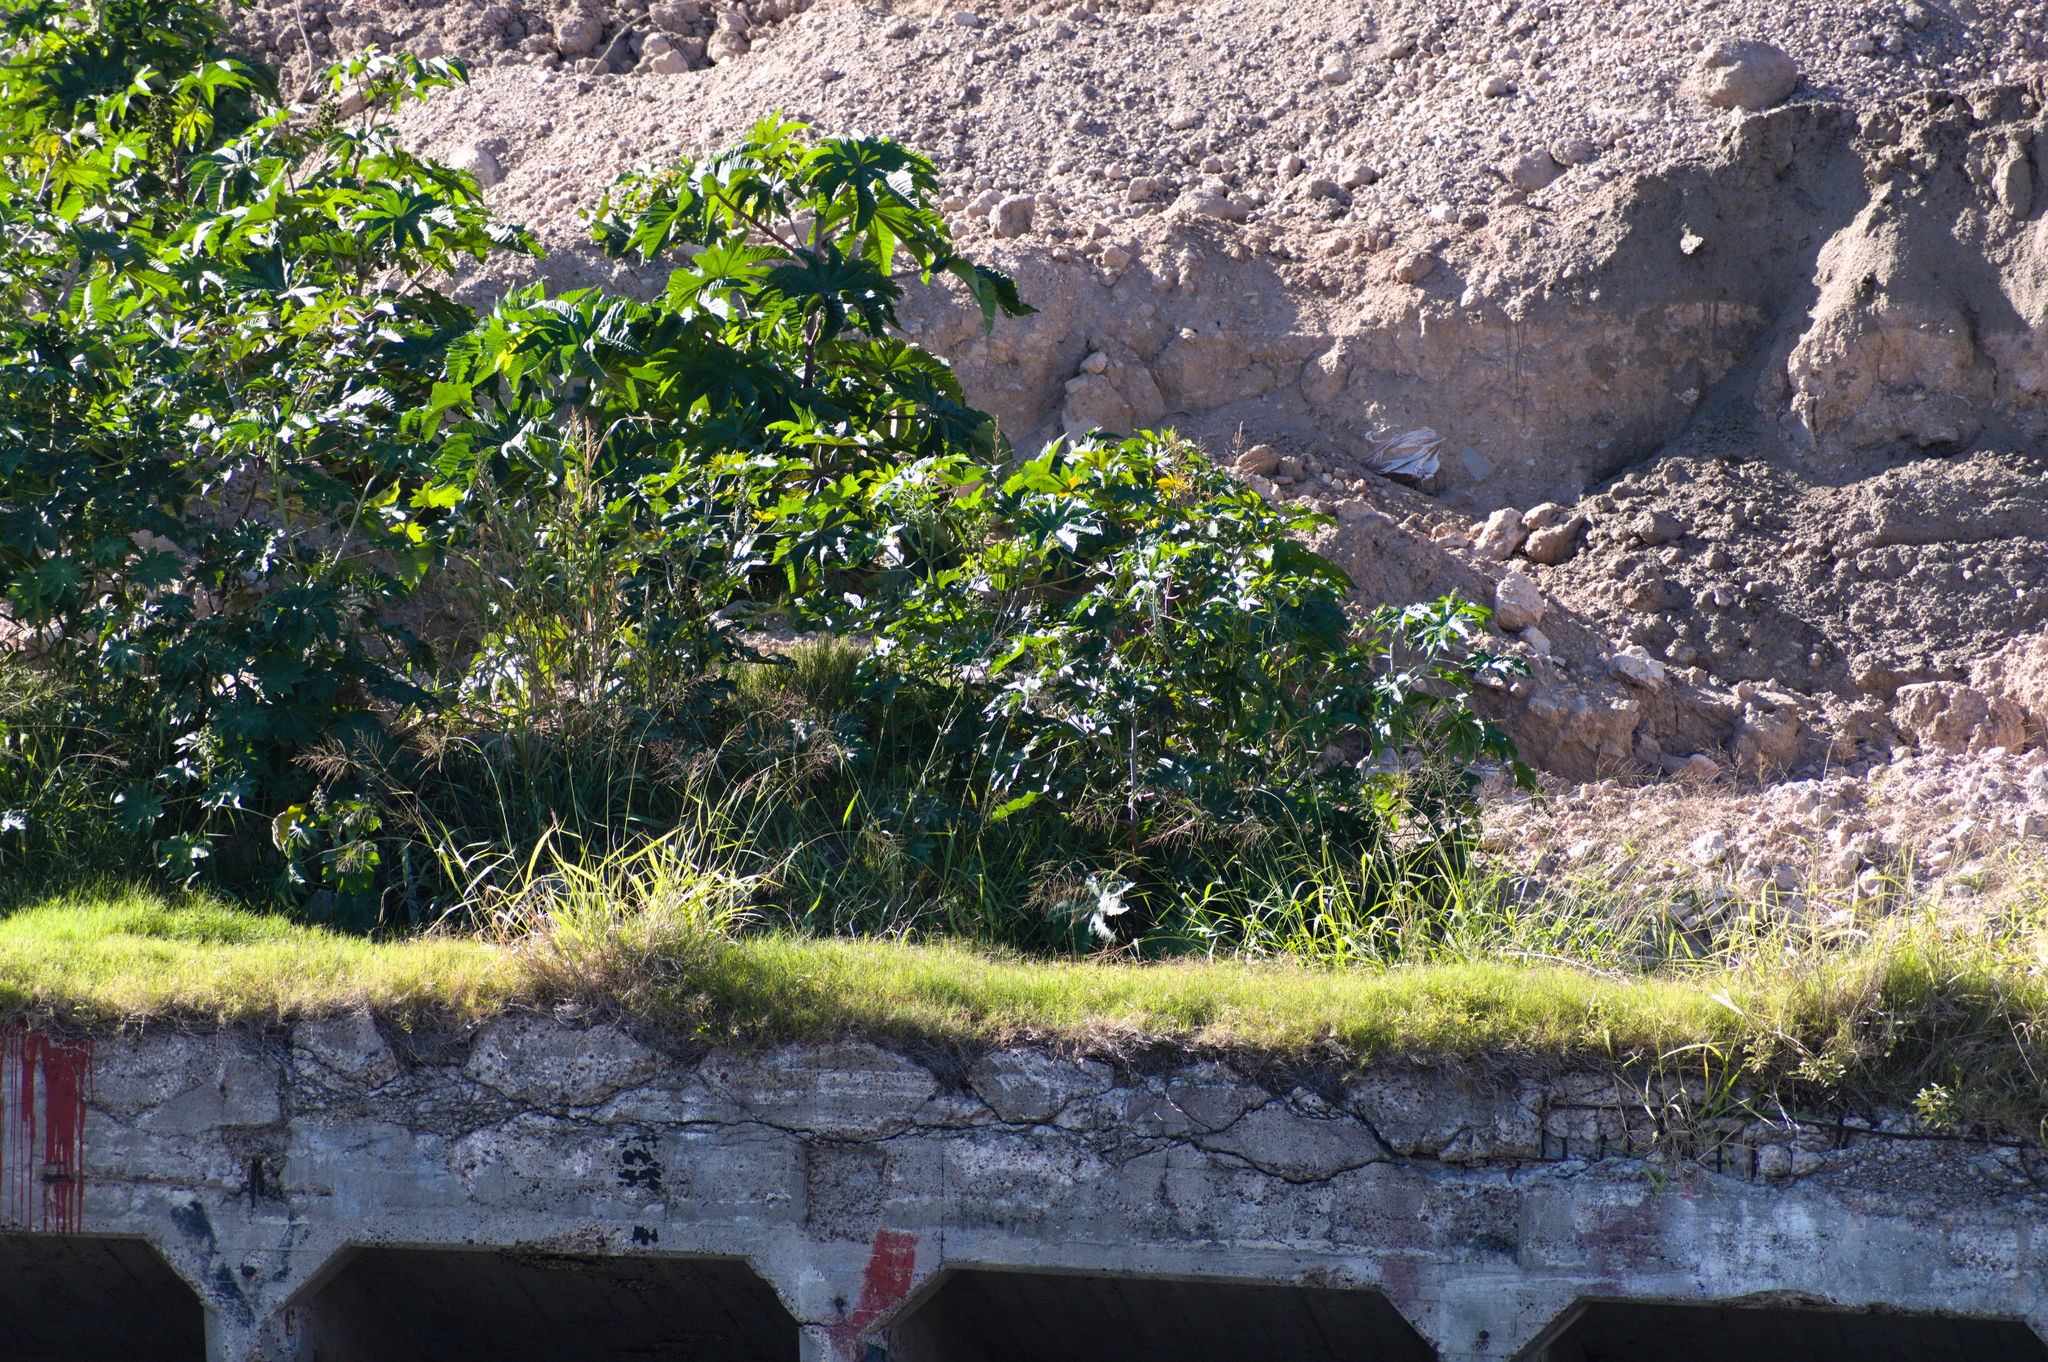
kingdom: Plantae
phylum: Tracheophyta
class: Magnoliopsida
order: Malpighiales
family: Euphorbiaceae
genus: Ricinus
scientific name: Ricinus communis
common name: Castor-oil-plant
